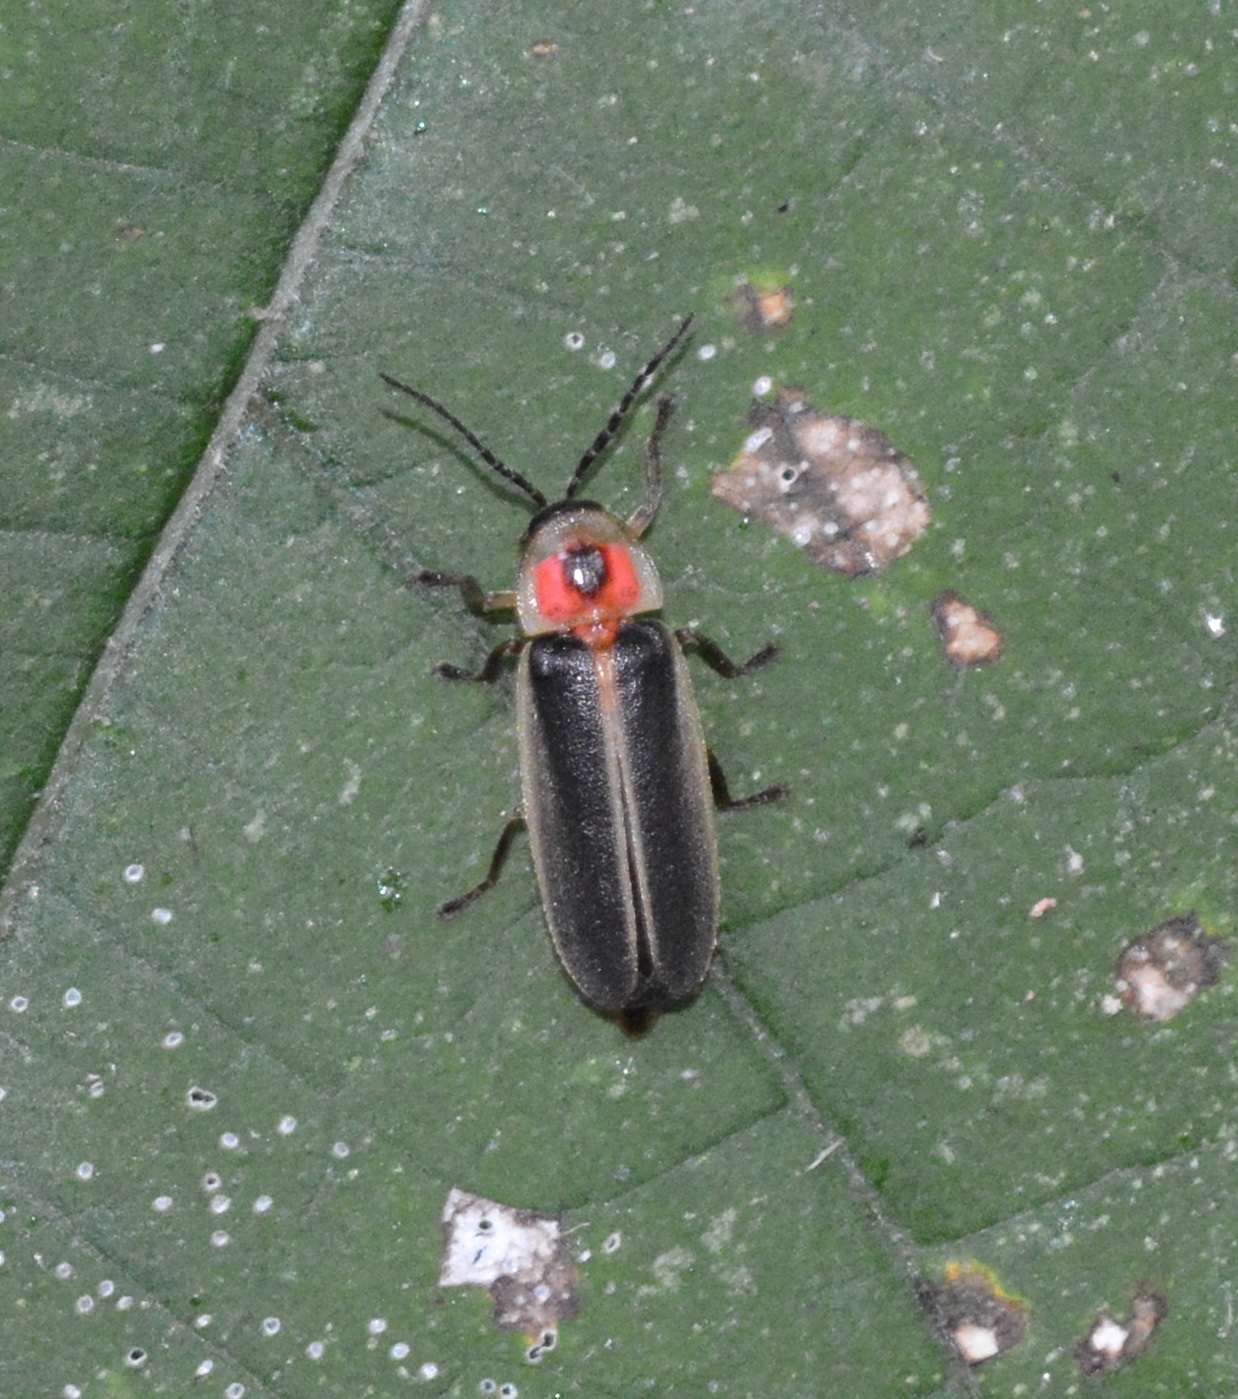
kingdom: Animalia
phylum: Arthropoda
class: Insecta
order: Coleoptera
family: Lampyridae
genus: Photinus
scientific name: Photinus pyralis
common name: Big dipper firefly
